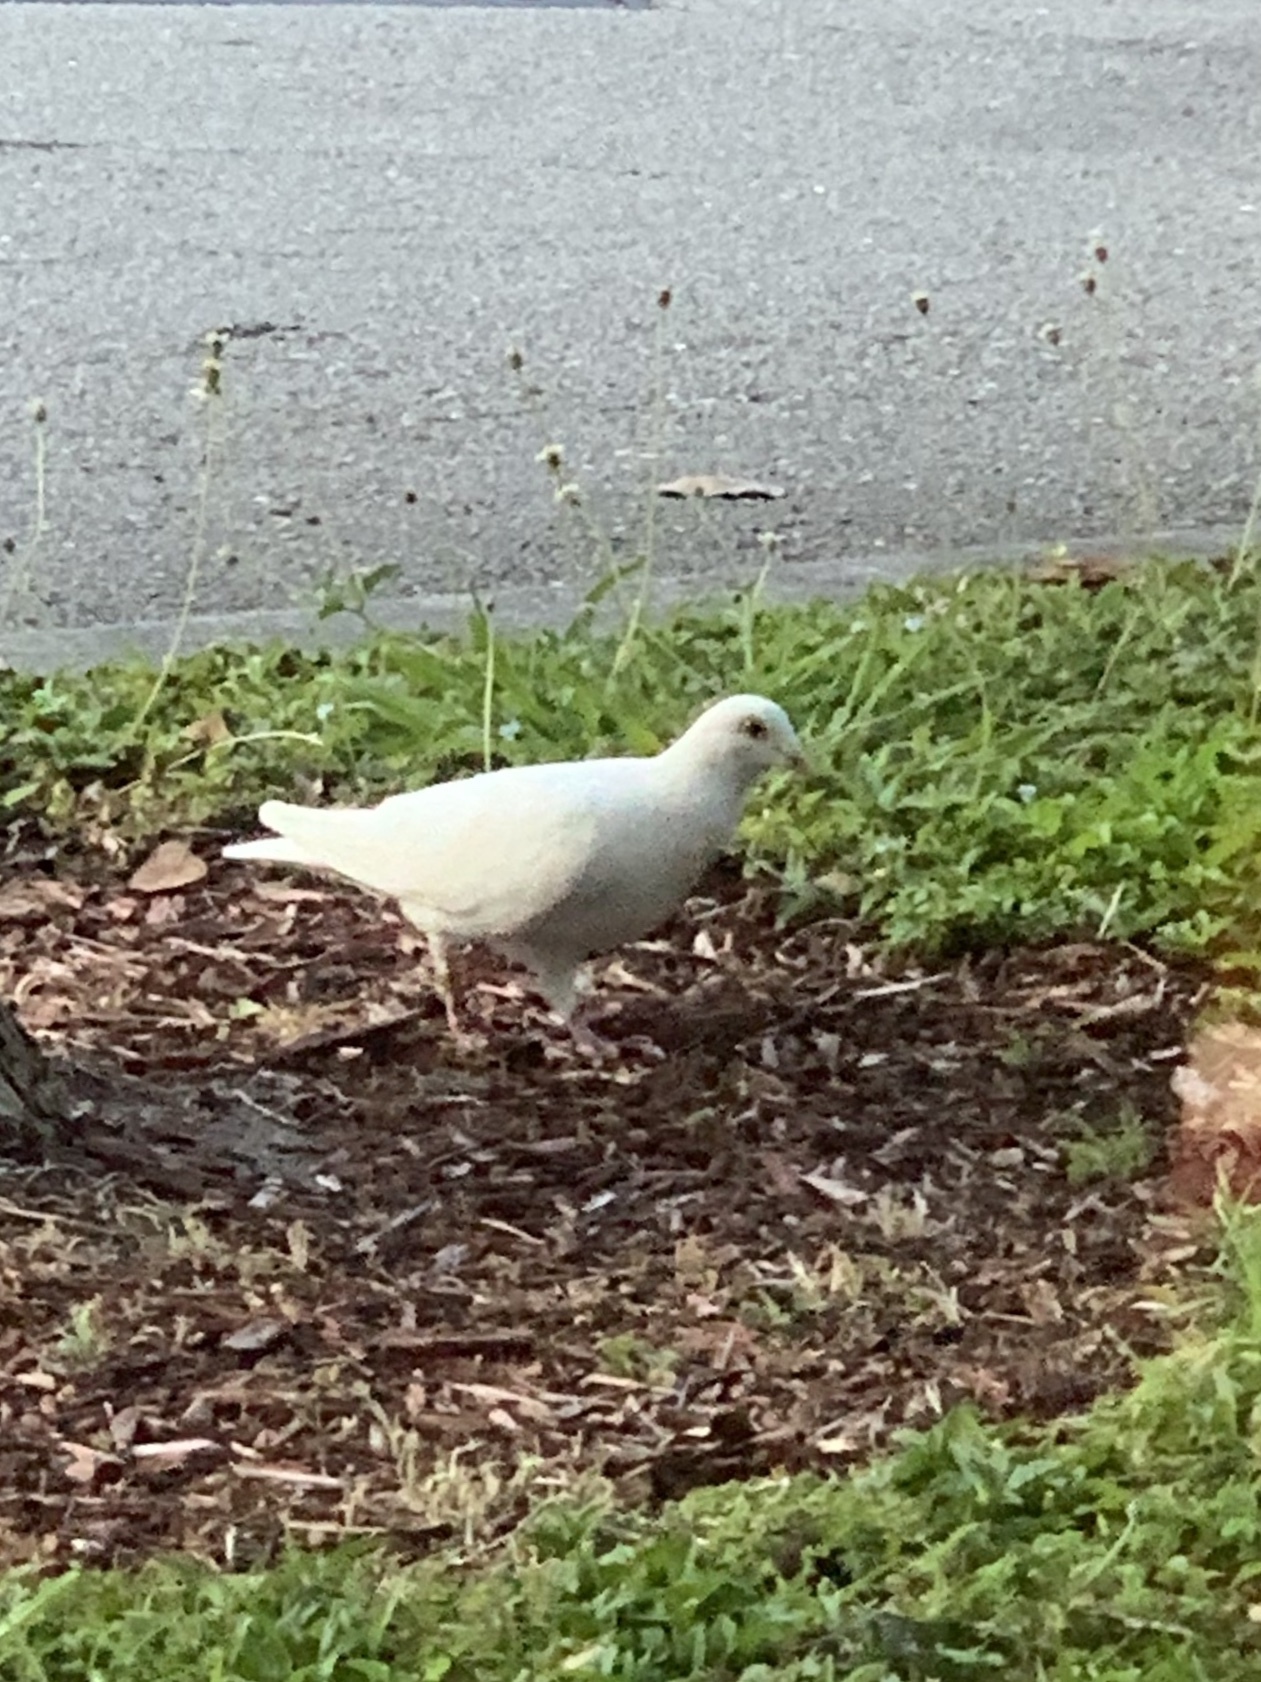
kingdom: Animalia
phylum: Chordata
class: Aves
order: Columbiformes
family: Columbidae
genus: Columba
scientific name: Columba livia
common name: Rock pigeon
